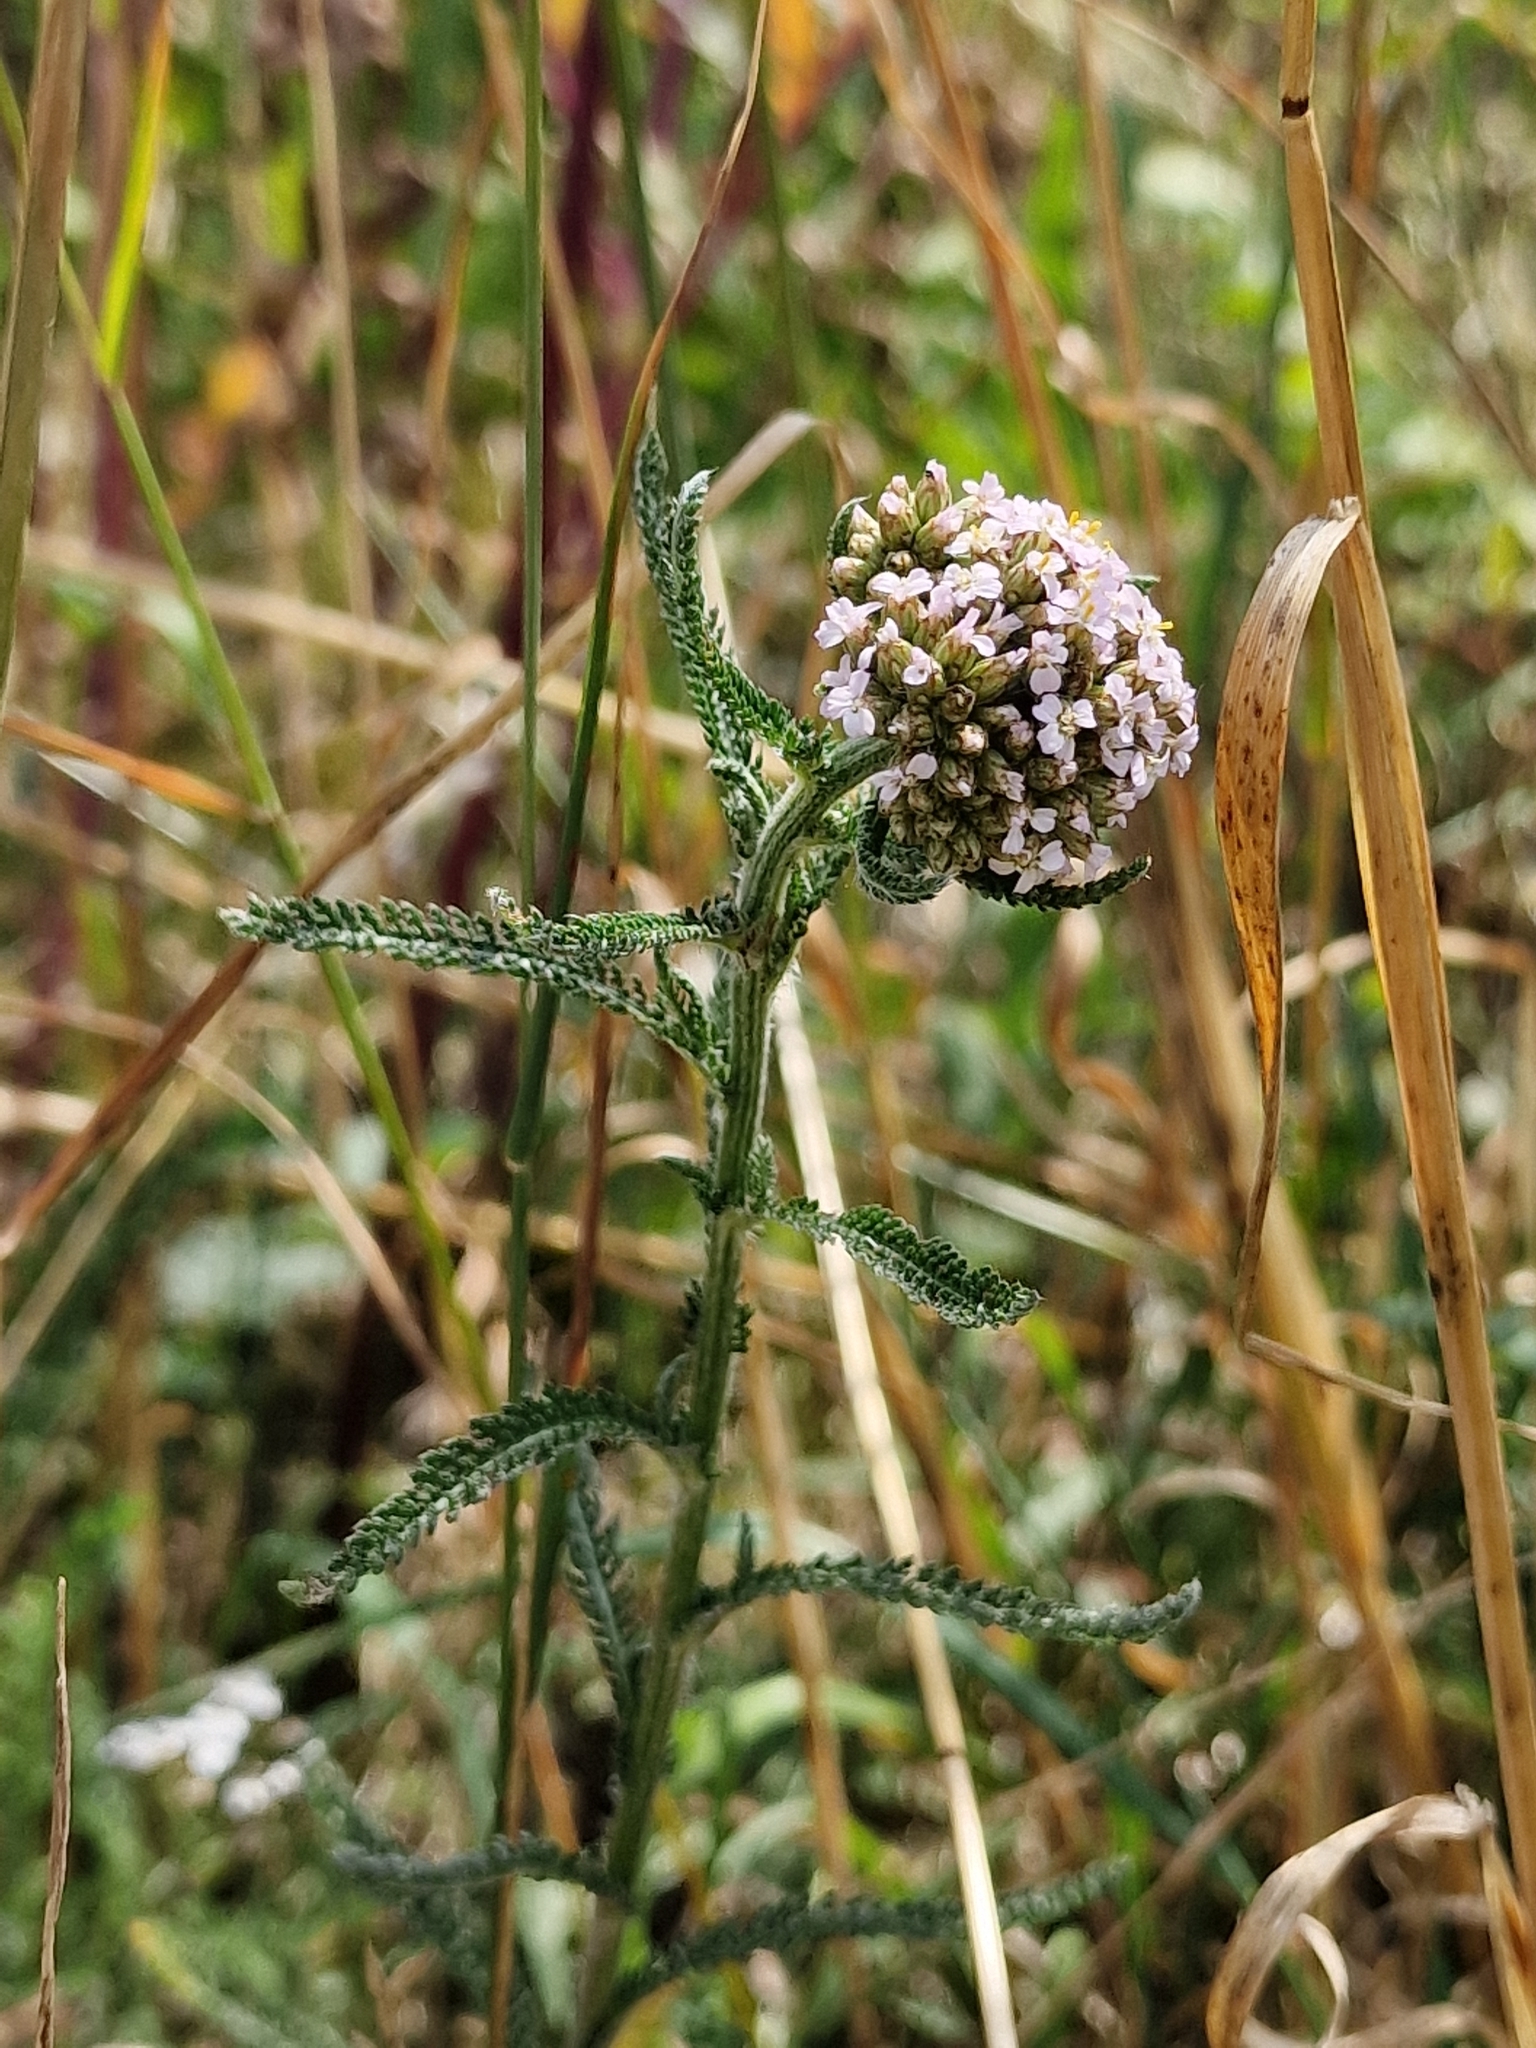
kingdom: Plantae
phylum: Tracheophyta
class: Magnoliopsida
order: Asterales
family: Asteraceae
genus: Achillea
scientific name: Achillea millefolium
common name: Yarrow
